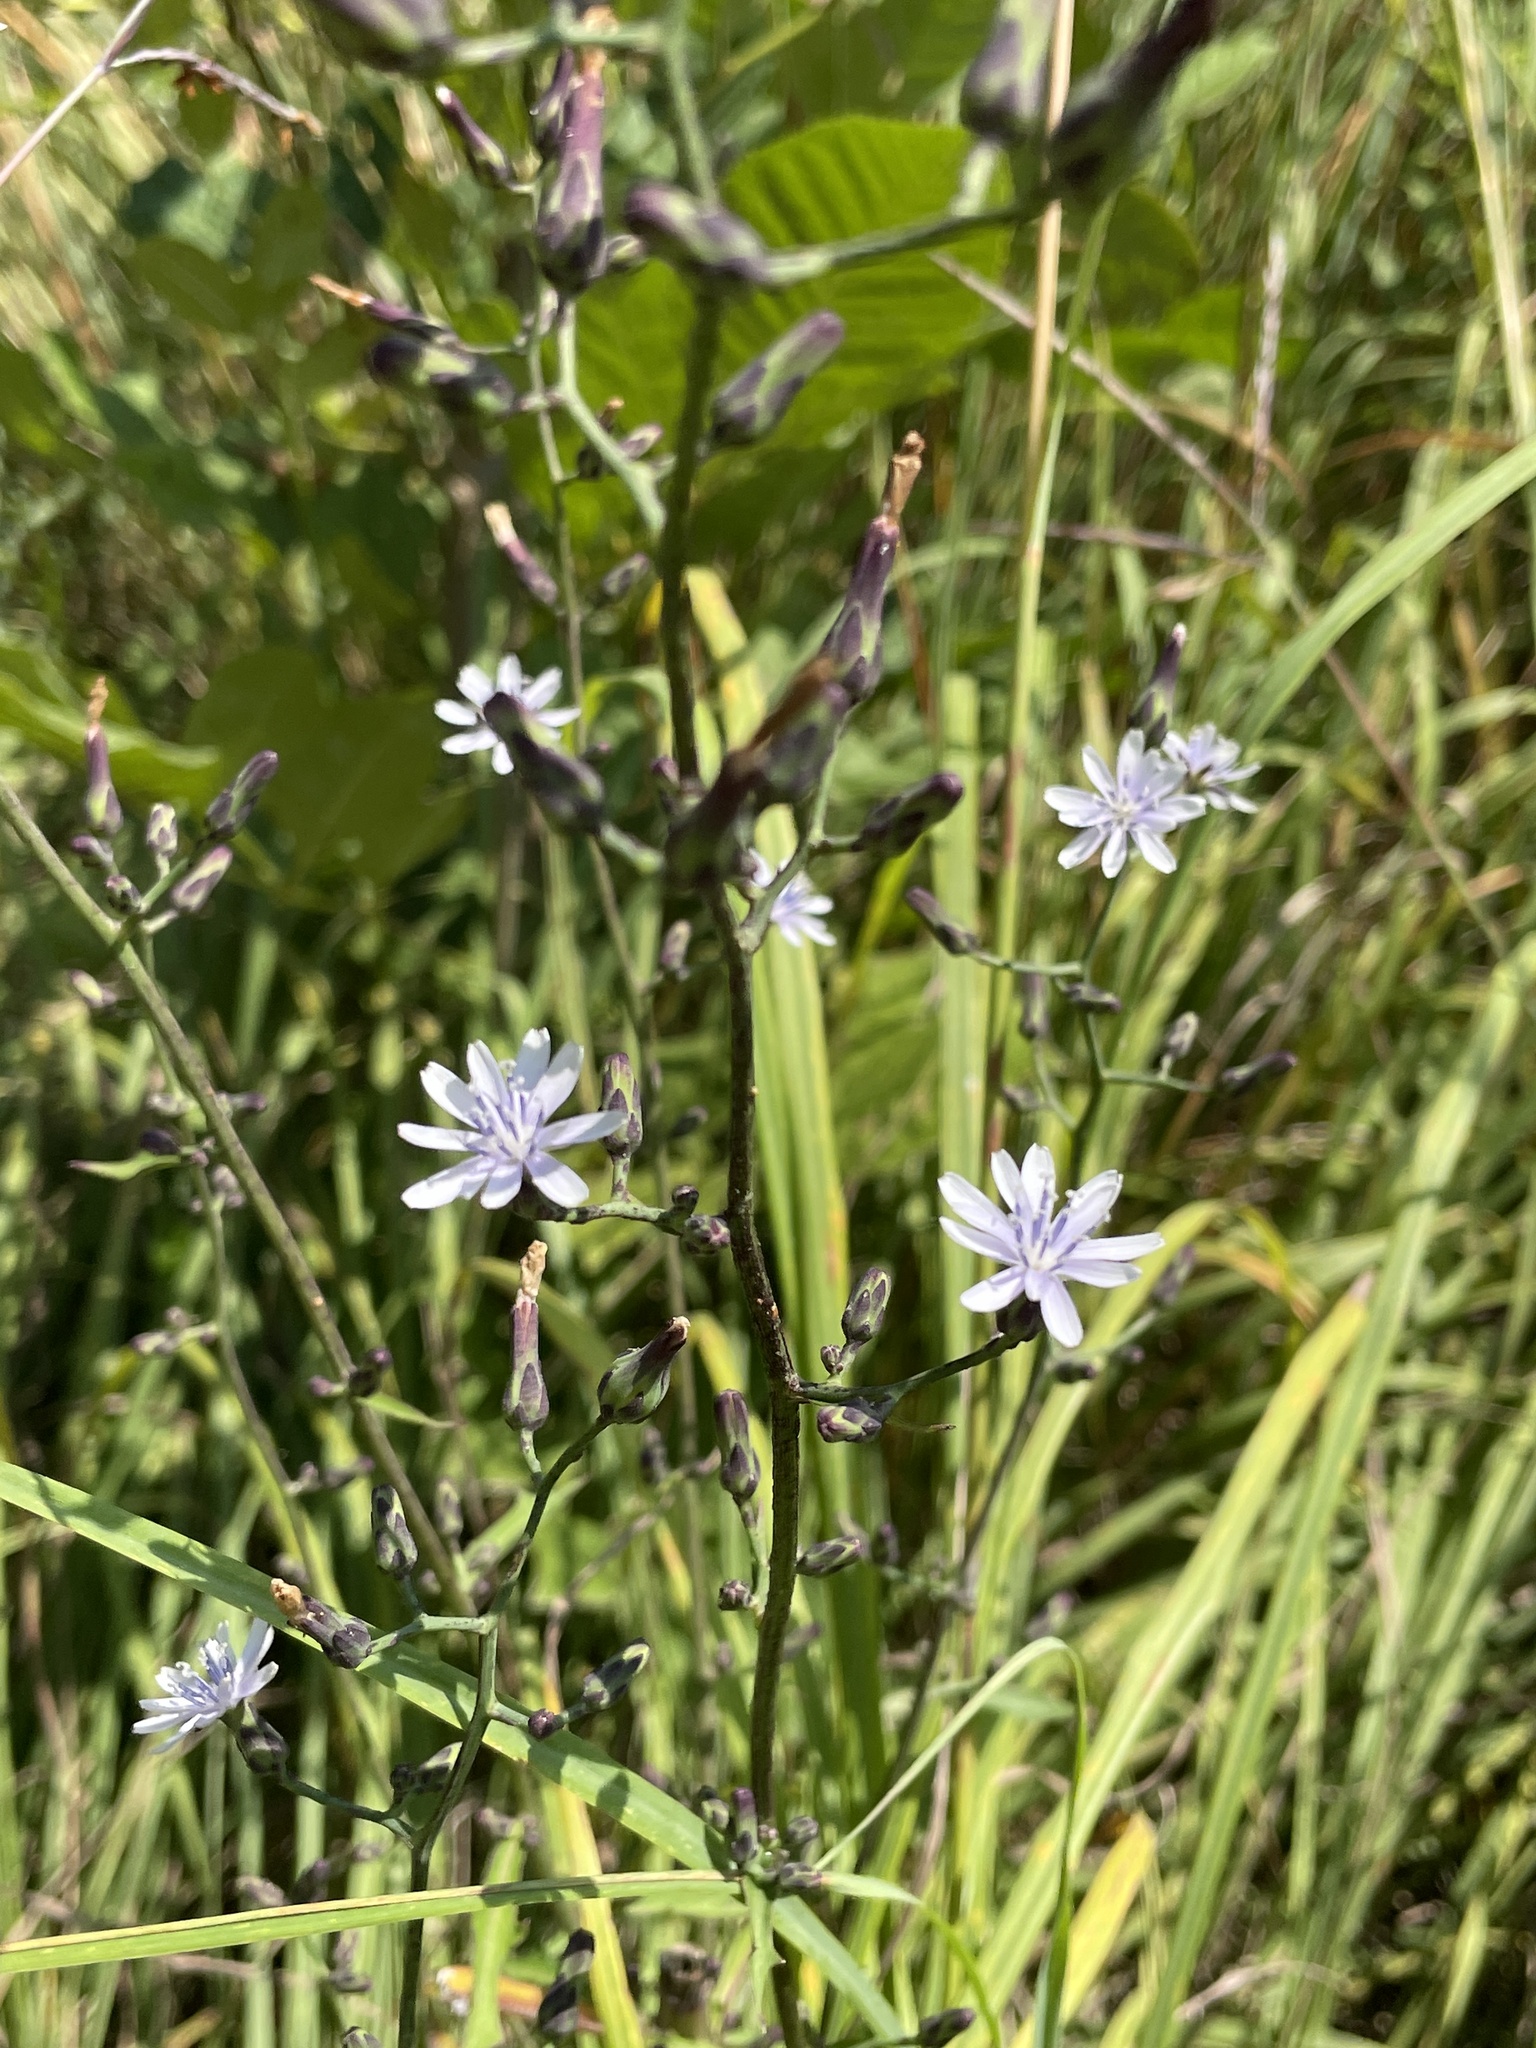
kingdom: Plantae
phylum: Tracheophyta
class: Magnoliopsida
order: Asterales
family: Asteraceae
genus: Lactuca
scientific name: Lactuca floridana
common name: Woodland lettuce
